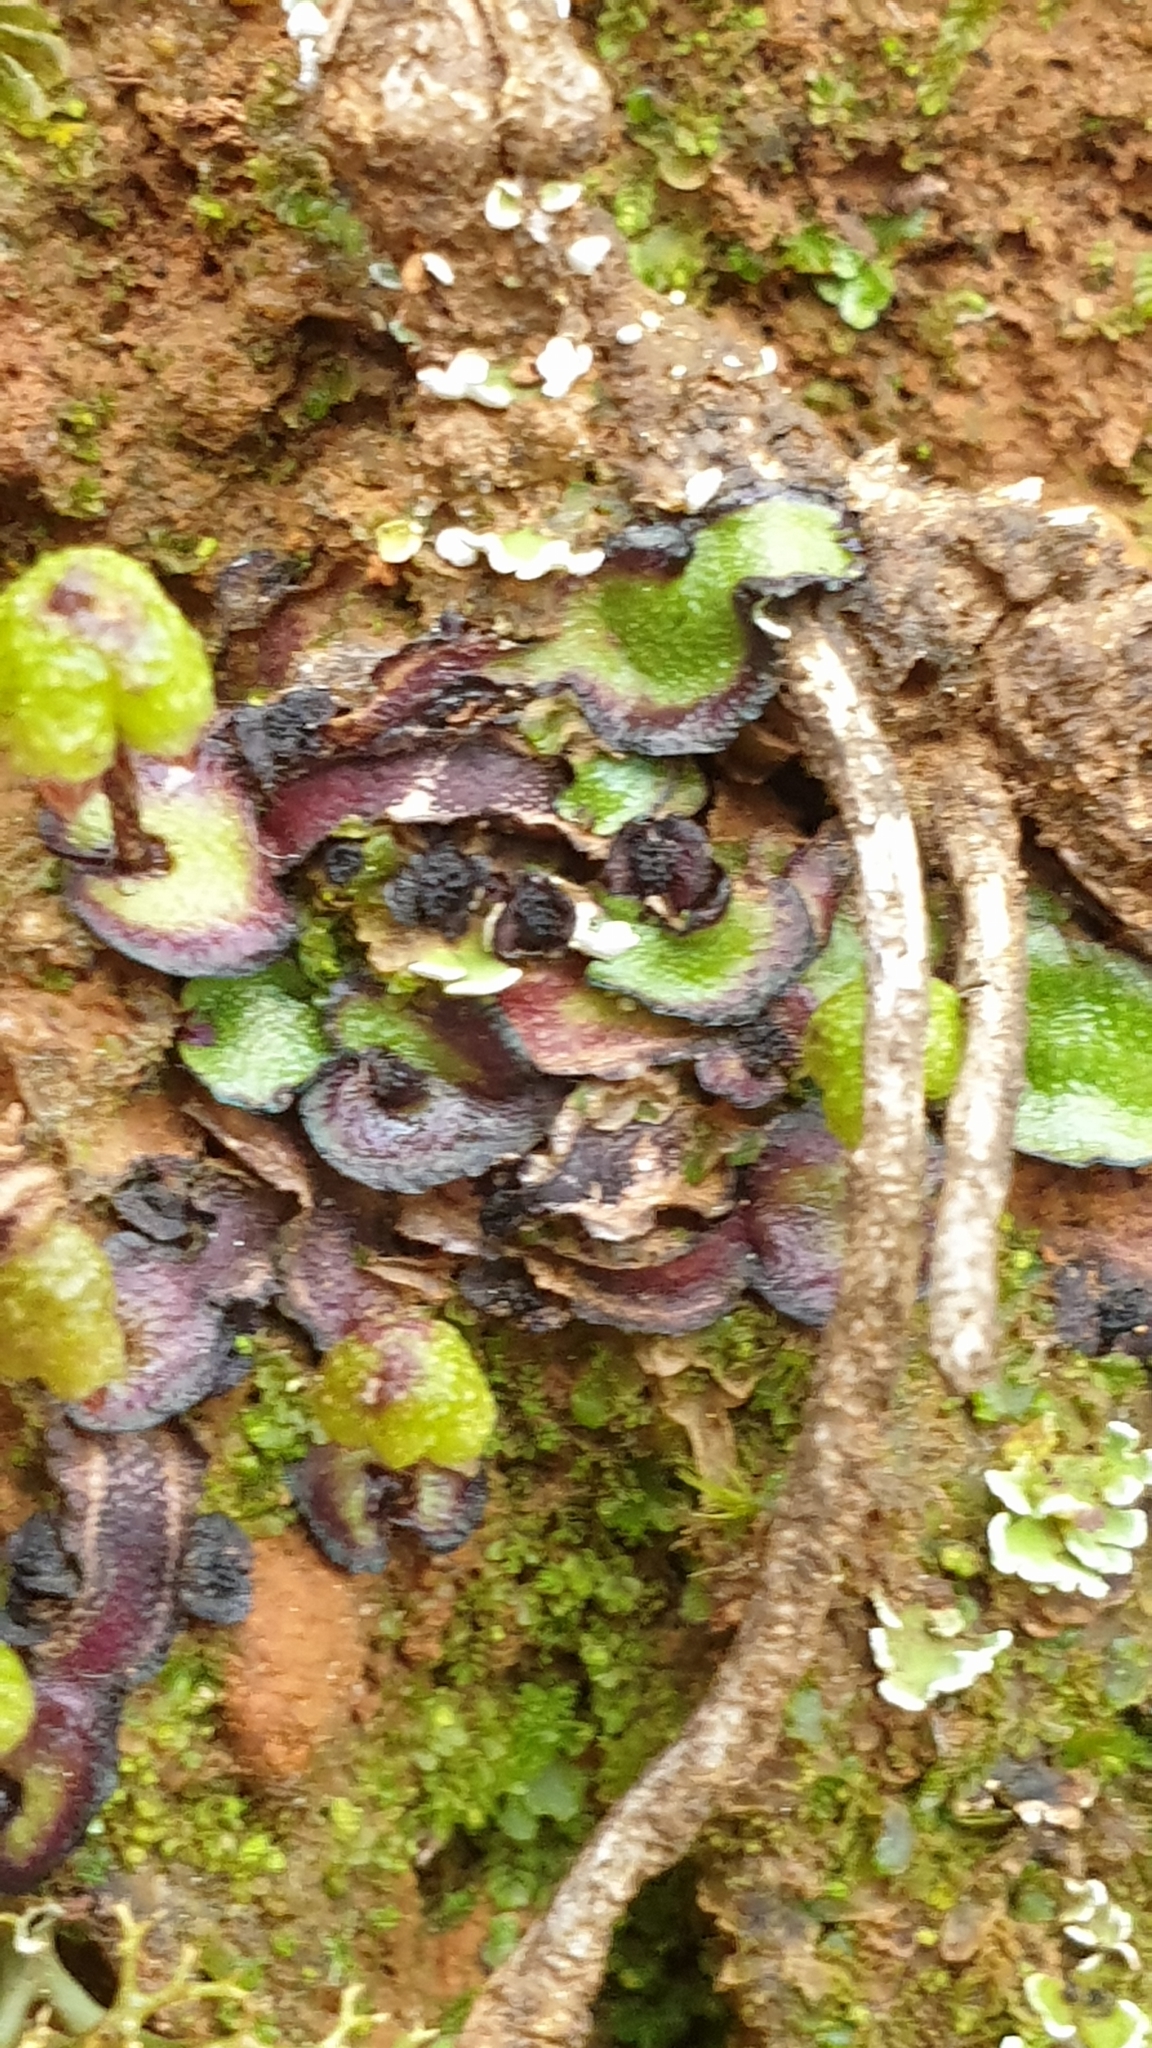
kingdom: Plantae
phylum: Marchantiophyta
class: Marchantiopsida
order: Marchantiales
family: Aytoniaceae
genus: Asterella
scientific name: Asterella drummondii
